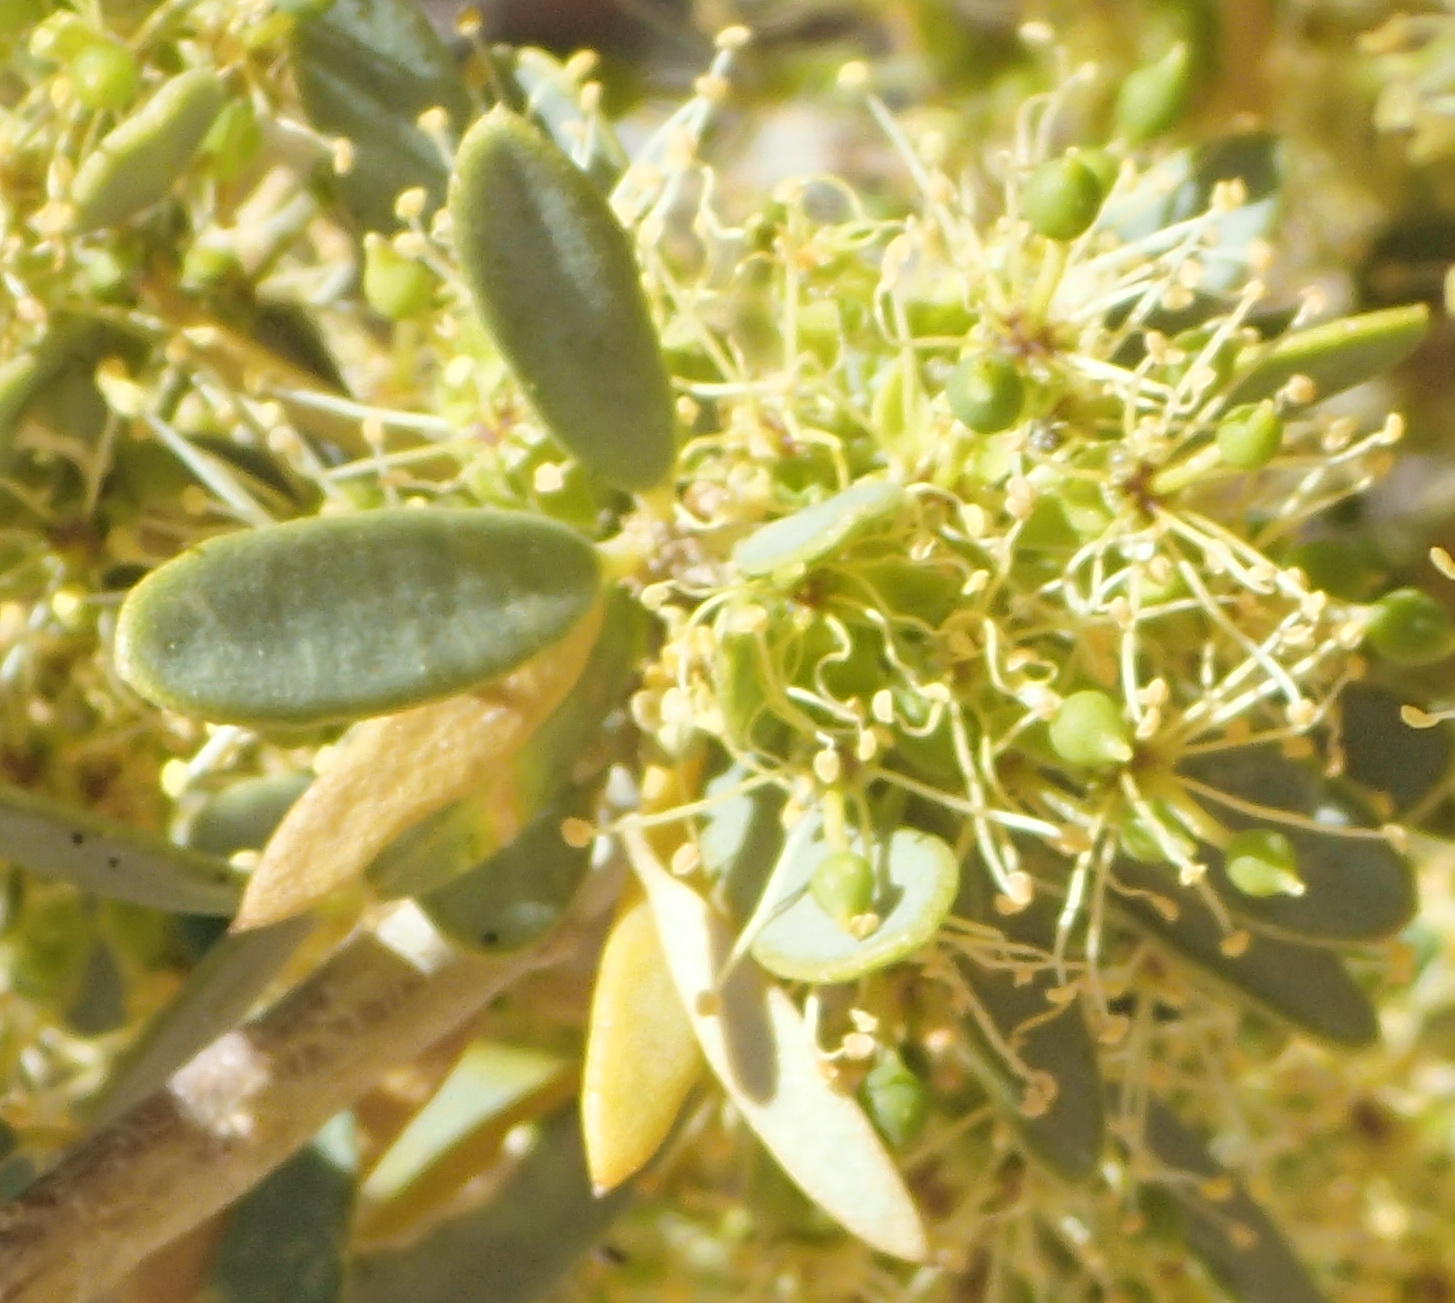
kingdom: Plantae
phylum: Tracheophyta
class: Magnoliopsida
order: Brassicales
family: Capparaceae
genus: Boscia
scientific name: Boscia albitrunca
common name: Caper bush
